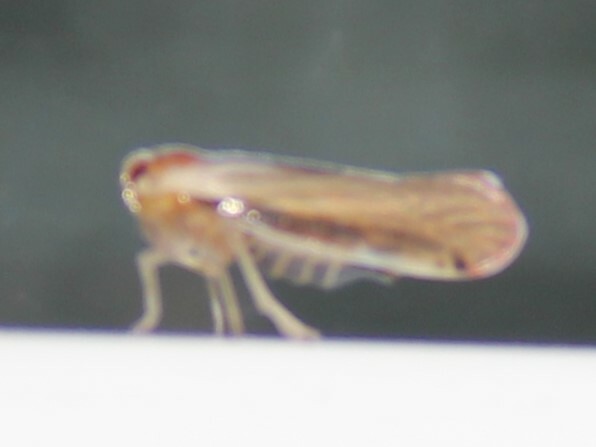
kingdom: Animalia
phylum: Arthropoda
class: Insecta
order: Hemiptera
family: Derbidae
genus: Omolicna
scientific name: Omolicna uhleri
